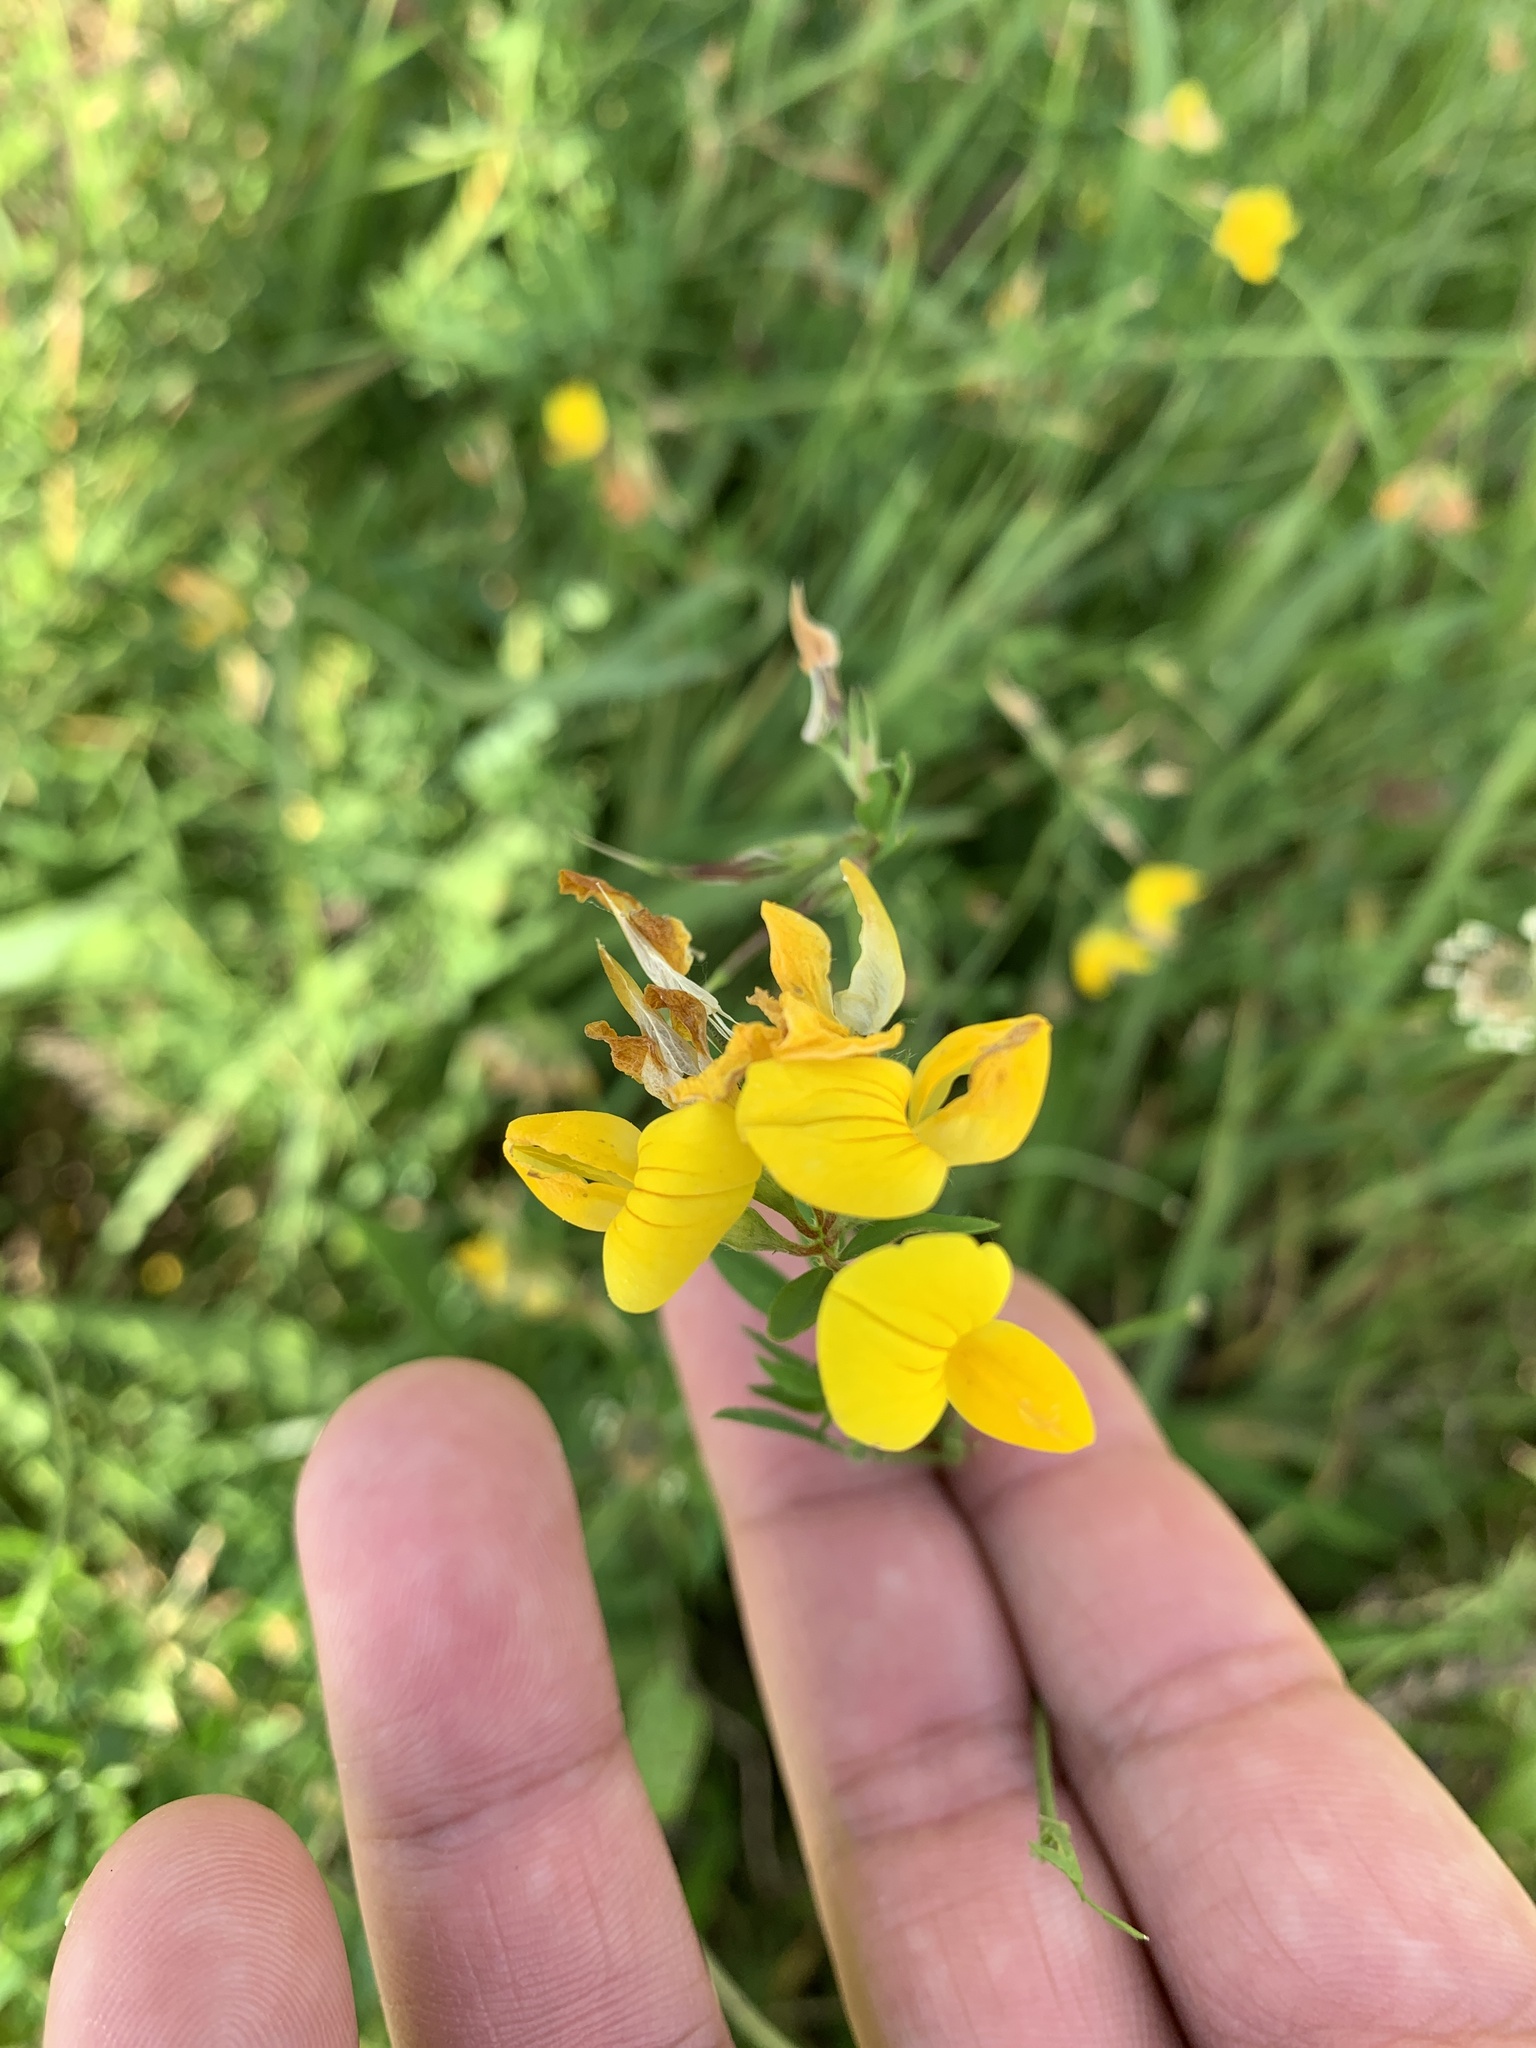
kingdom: Plantae
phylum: Tracheophyta
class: Magnoliopsida
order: Fabales
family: Fabaceae
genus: Lotus
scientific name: Lotus corniculatus
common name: Common bird's-foot-trefoil
